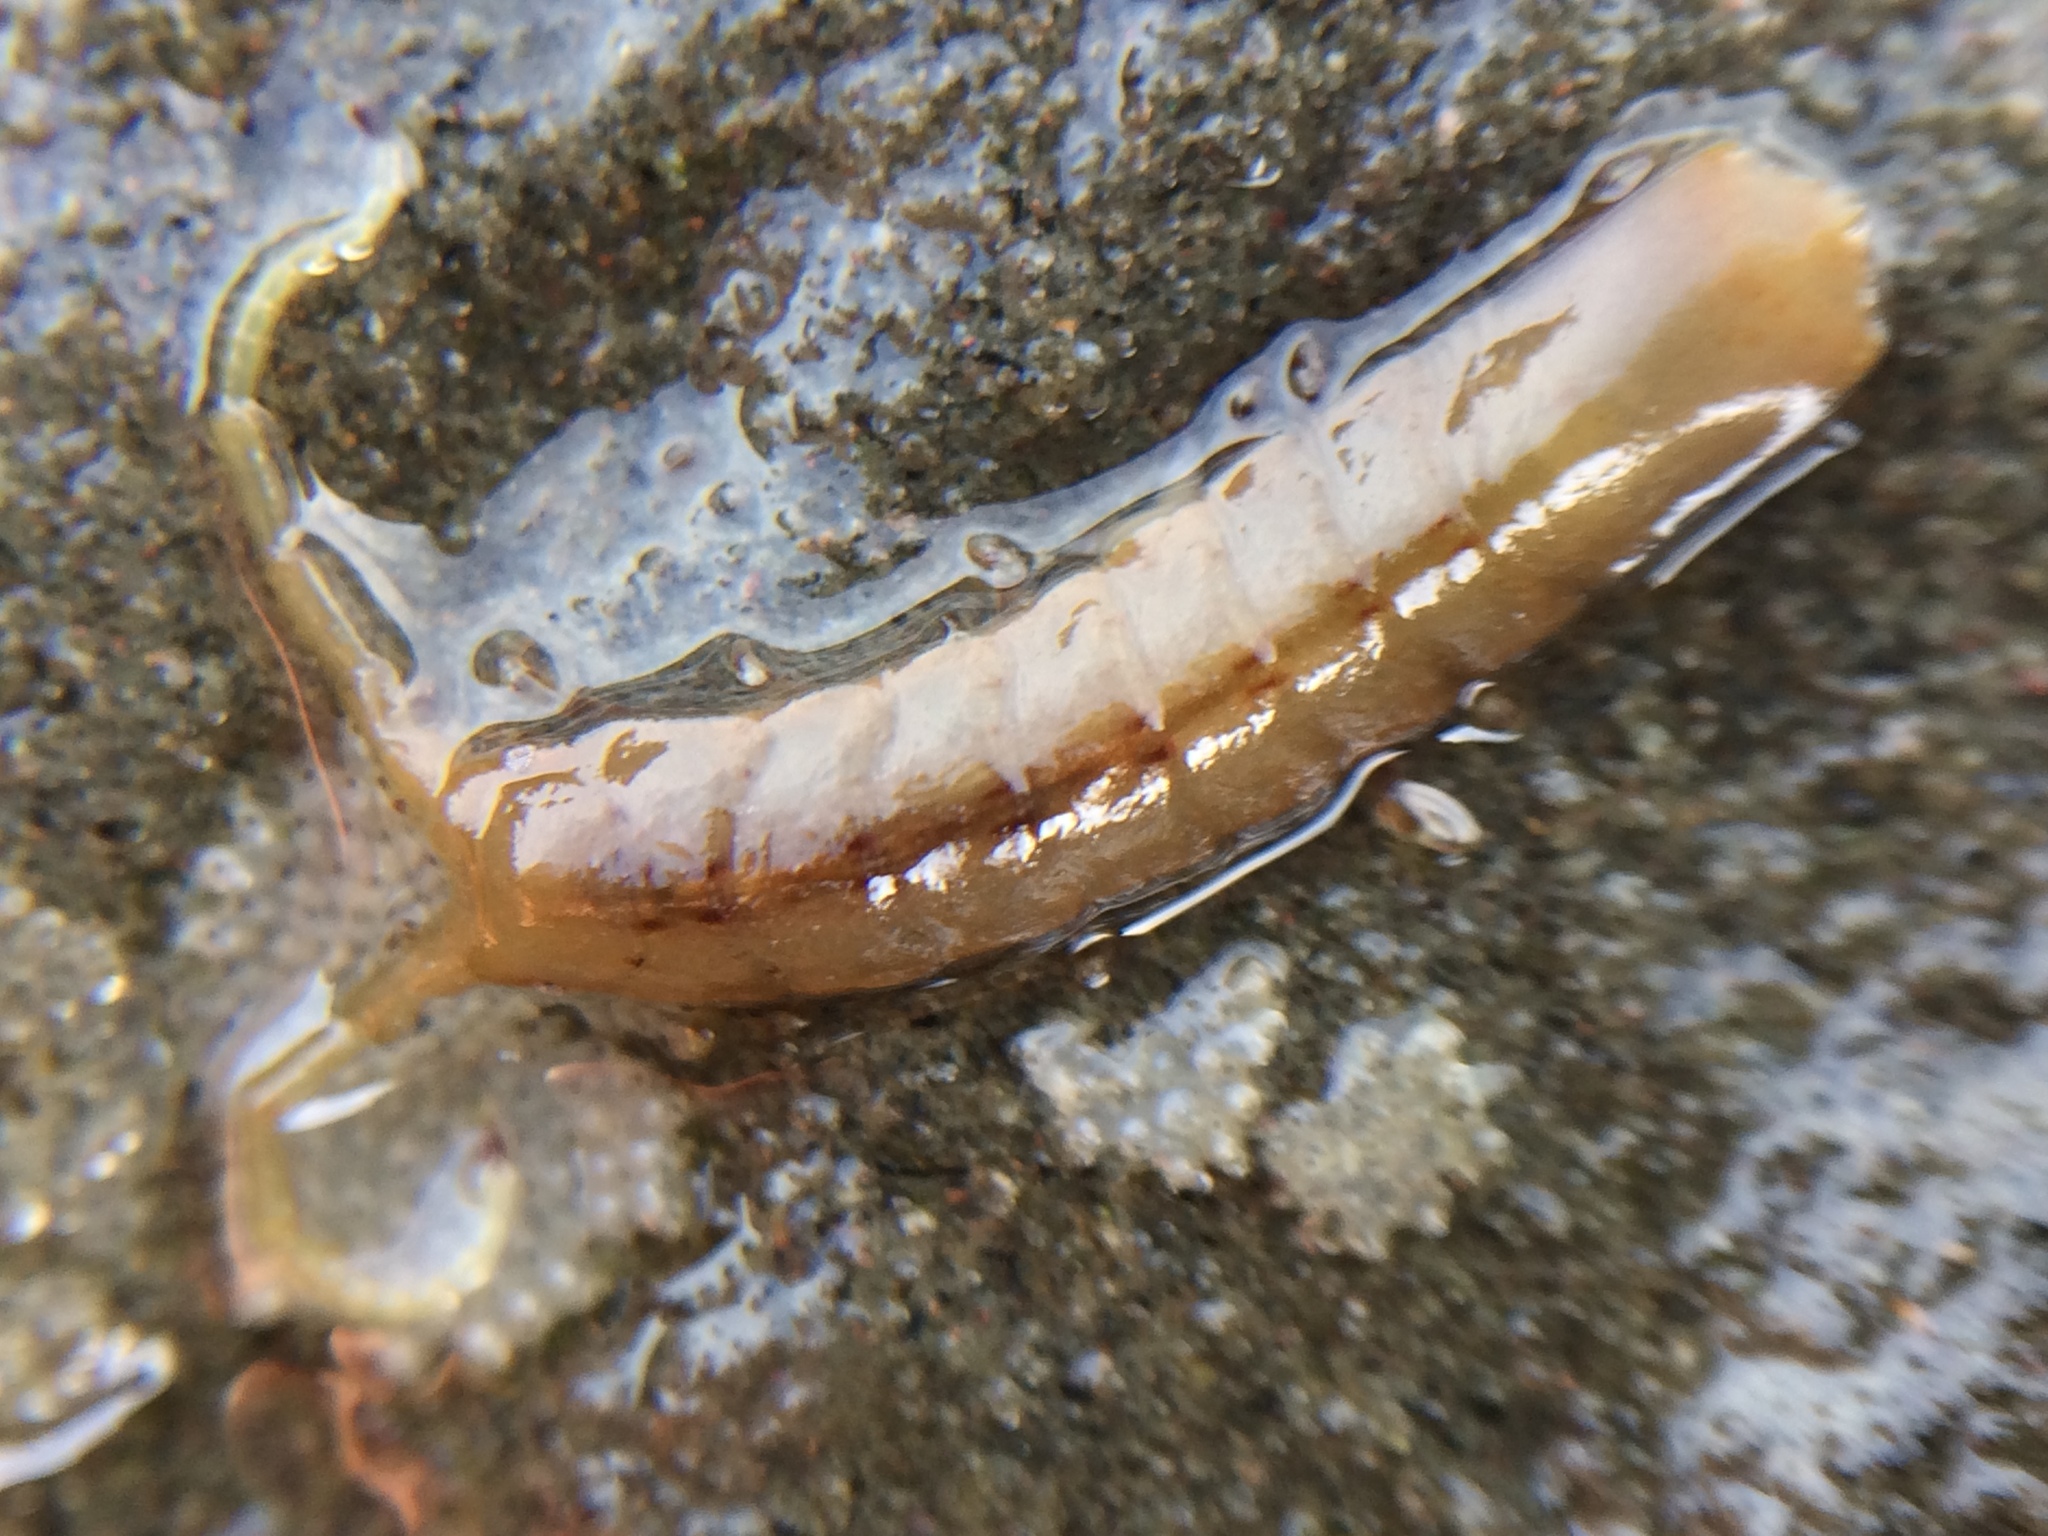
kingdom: Animalia
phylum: Arthropoda
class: Malacostraca
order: Isopoda
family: Idoteidae
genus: Idotea
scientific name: Idotea urotoma
